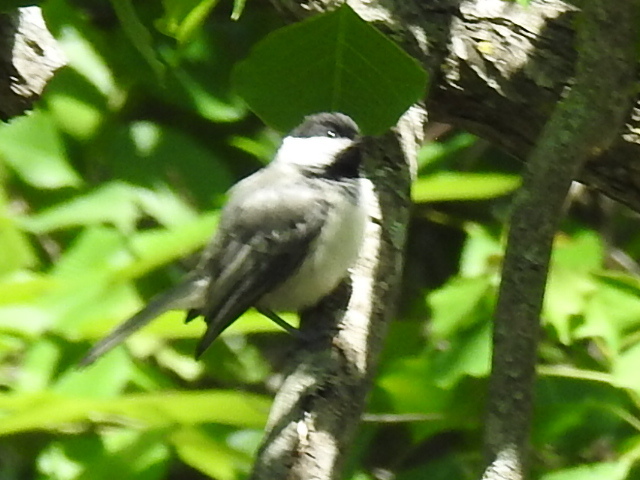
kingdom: Animalia
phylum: Chordata
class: Aves
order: Passeriformes
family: Paridae
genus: Poecile
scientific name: Poecile carolinensis
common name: Carolina chickadee
